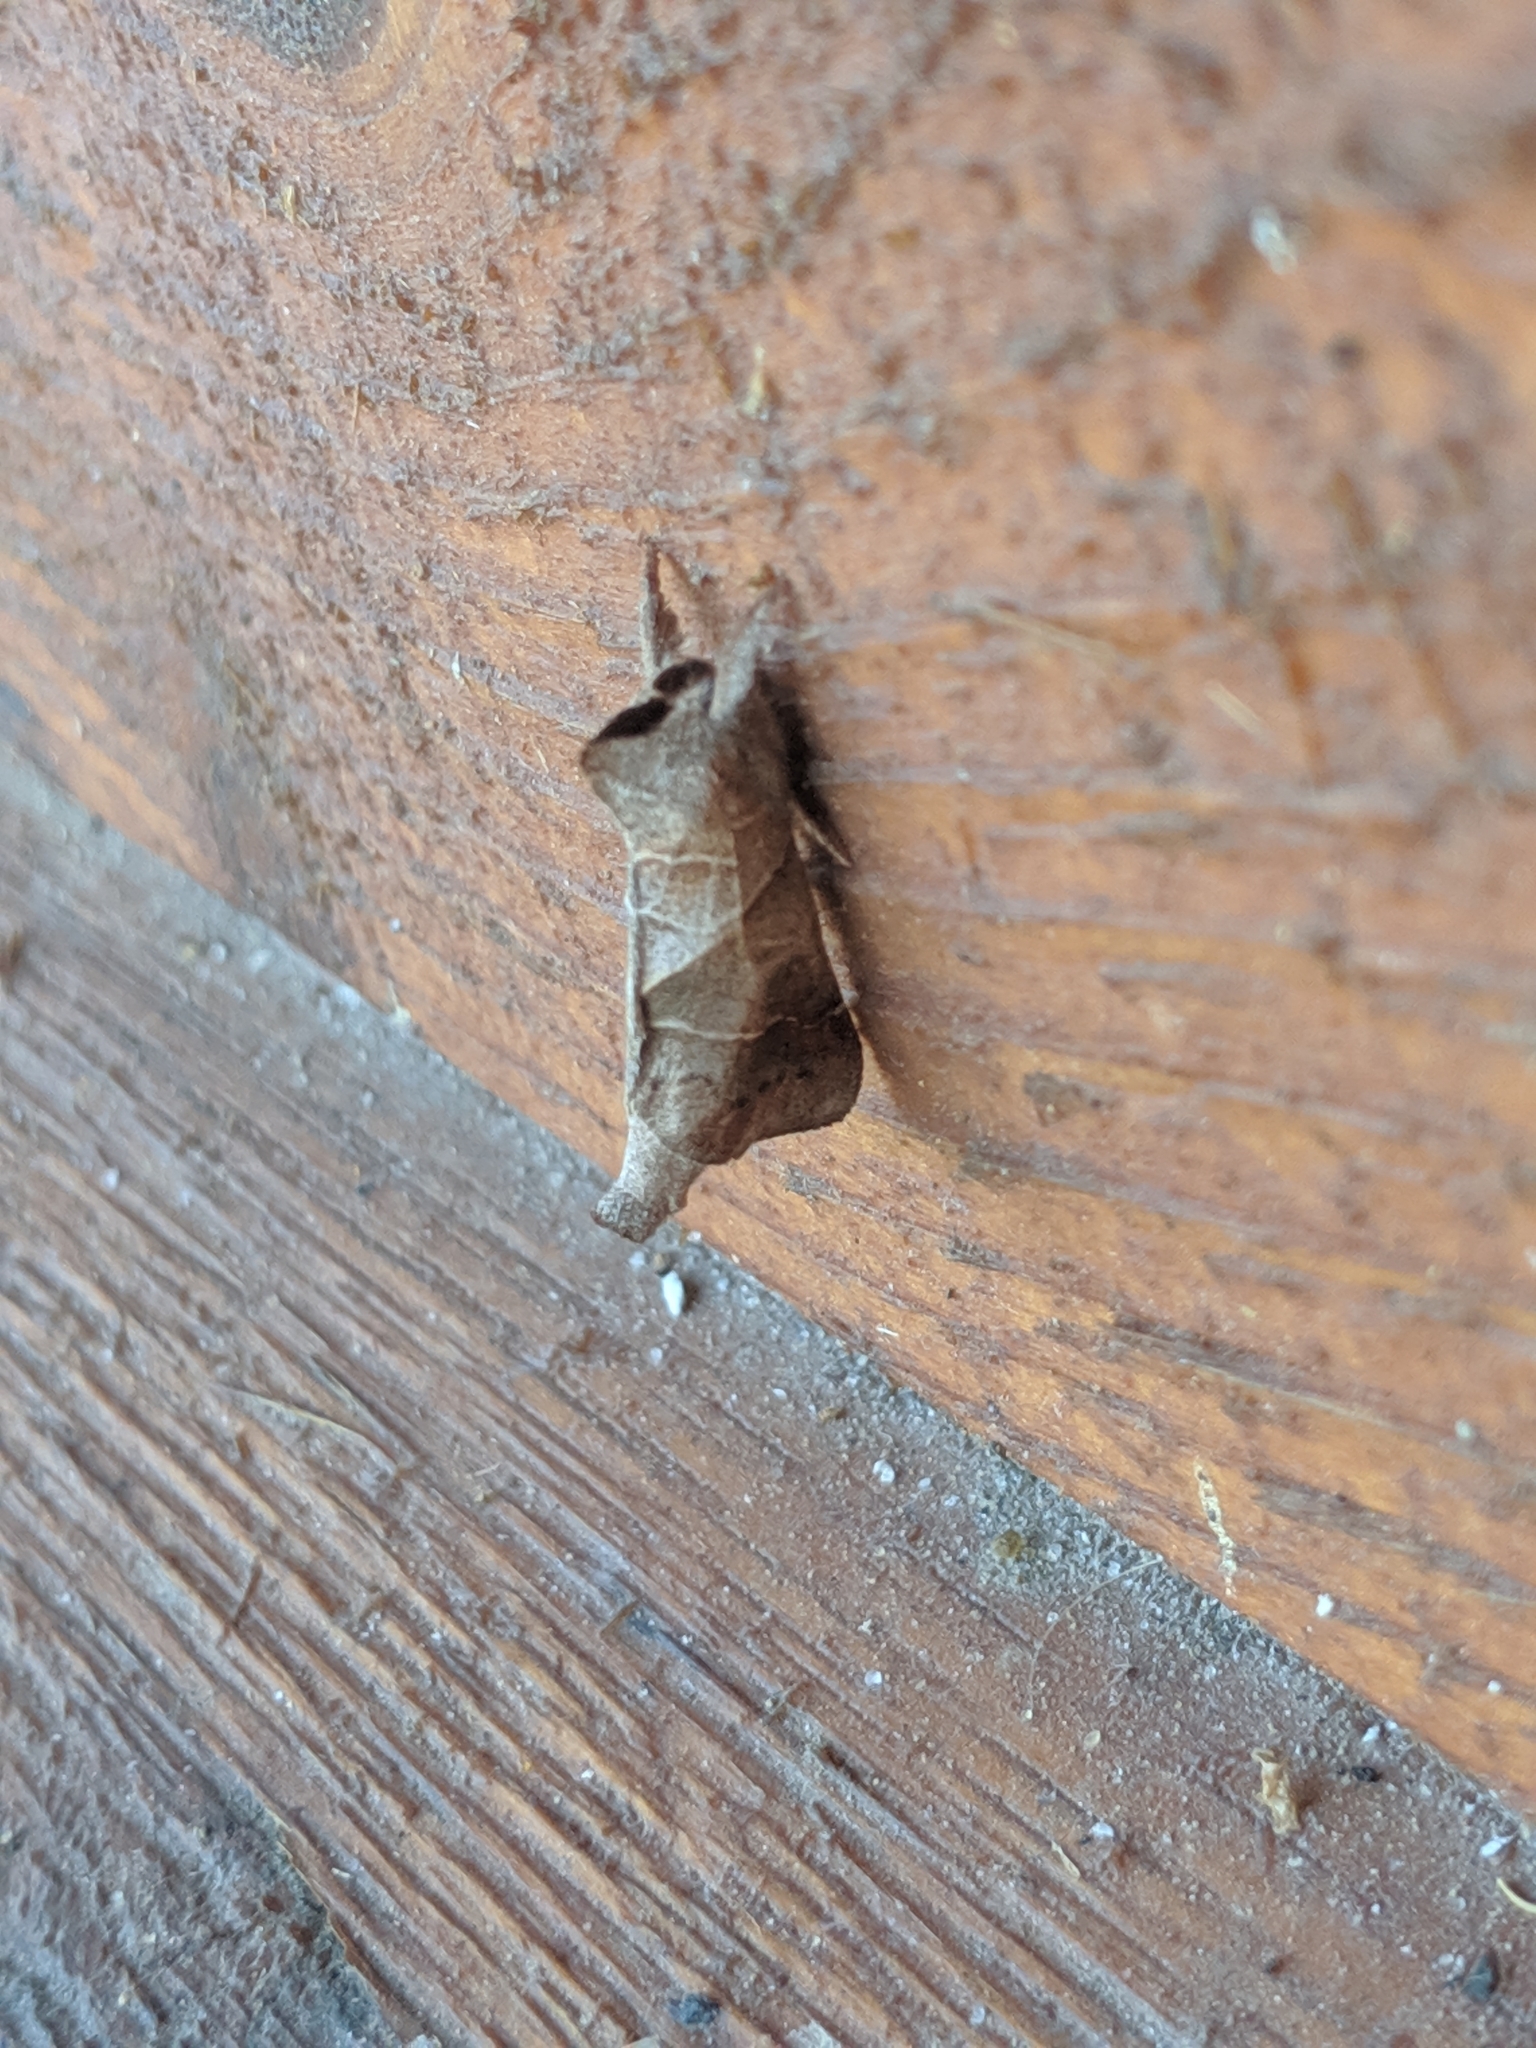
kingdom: Animalia
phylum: Arthropoda
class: Insecta
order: Lepidoptera
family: Notodontidae
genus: Clostera
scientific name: Clostera inclusa
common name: Angle-lined prominent
